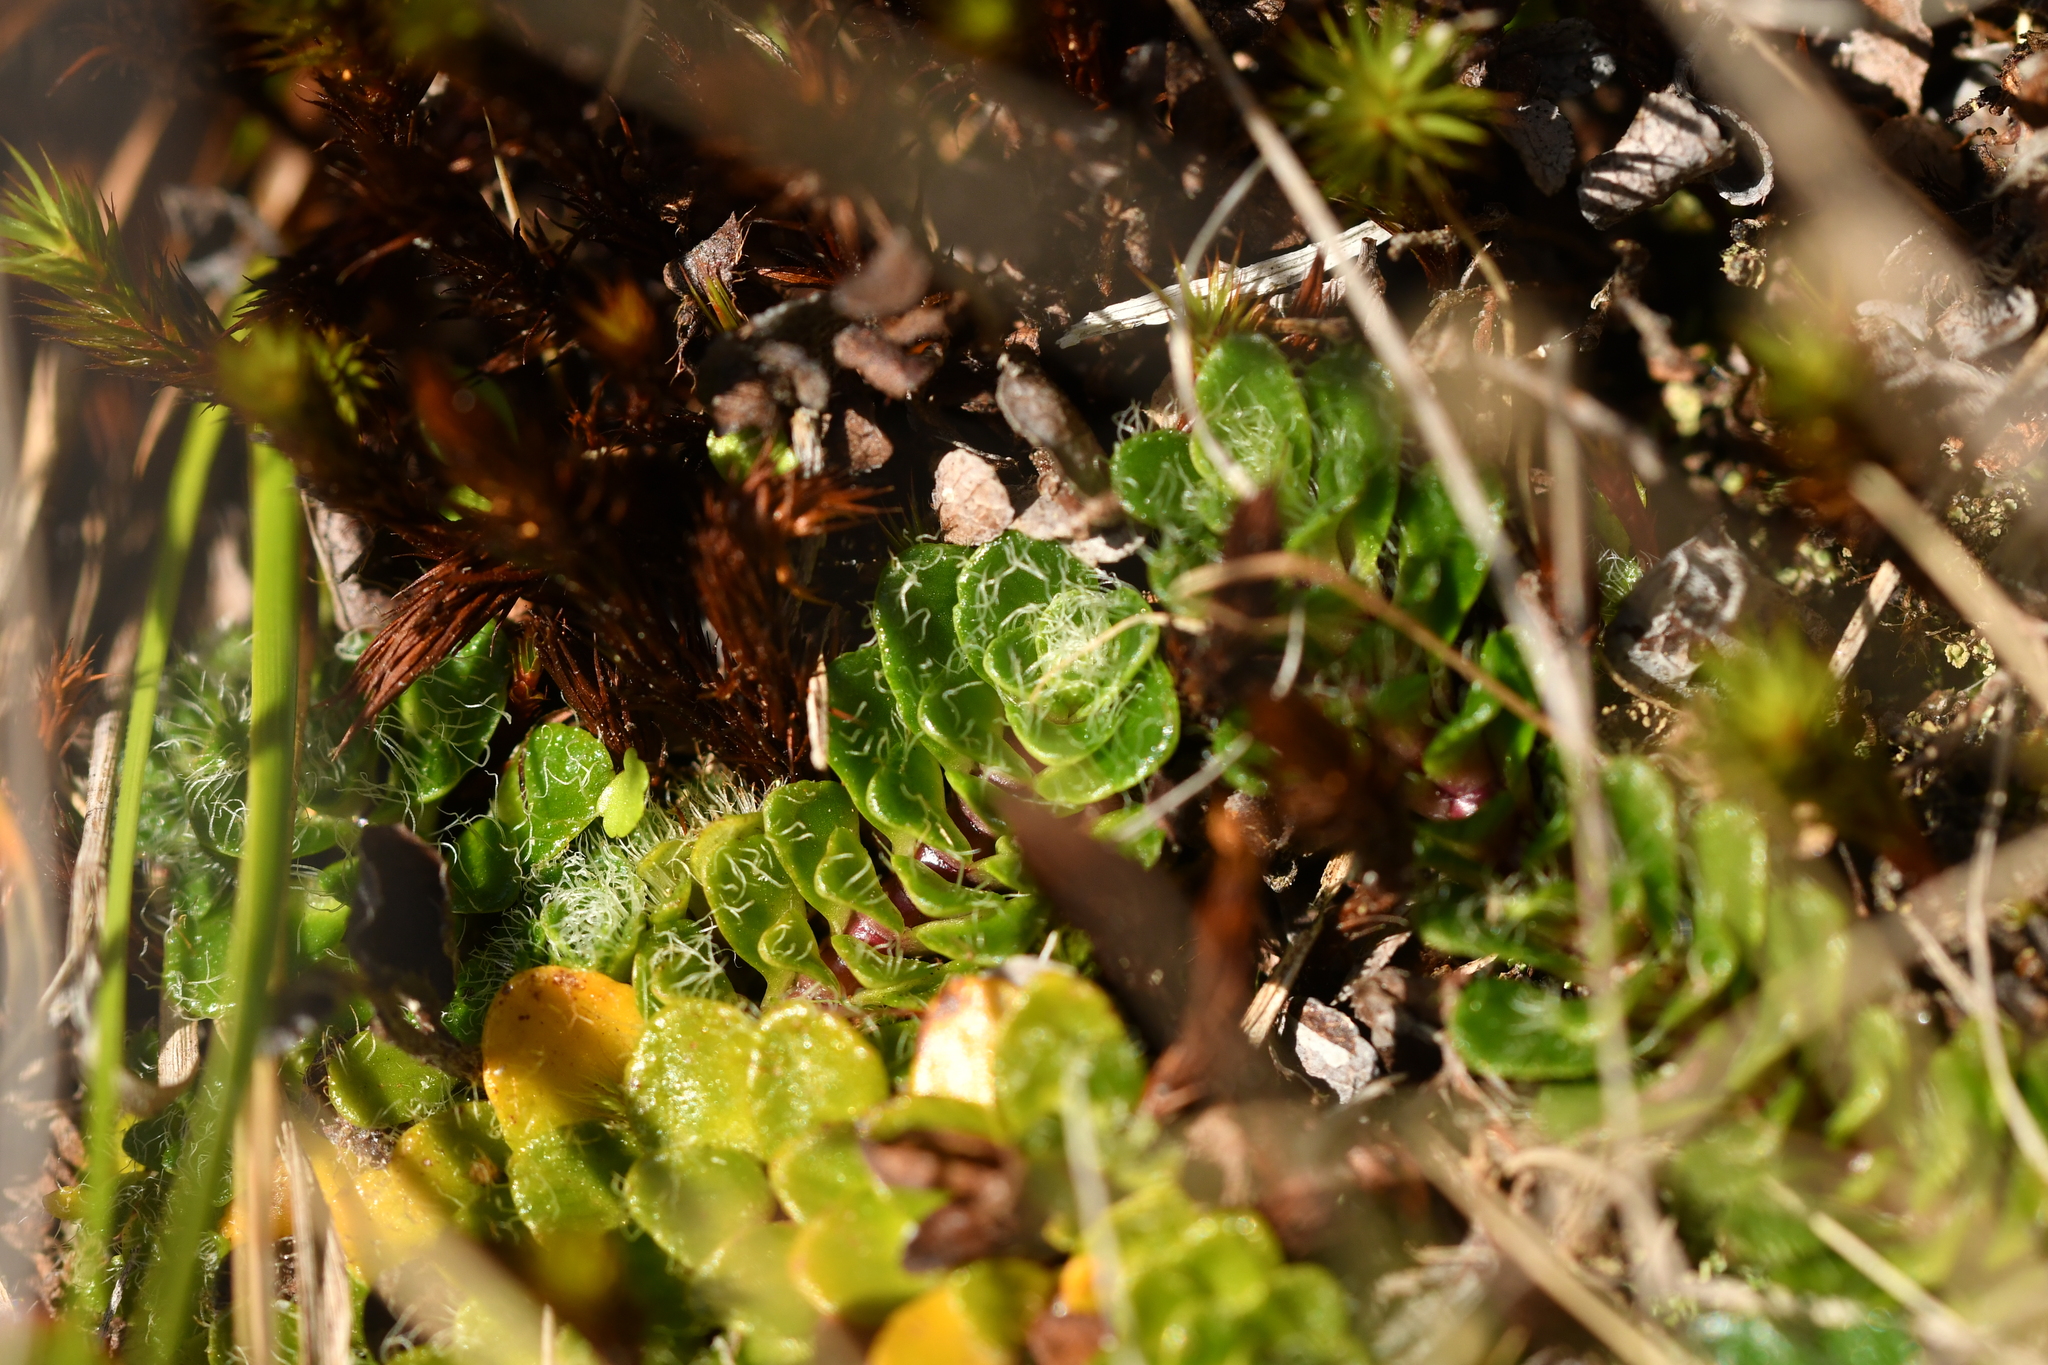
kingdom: Plantae
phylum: Tracheophyta
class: Magnoliopsida
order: Lamiales
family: Plantaginaceae
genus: Ourisia
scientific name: Ourisia glandulosa
